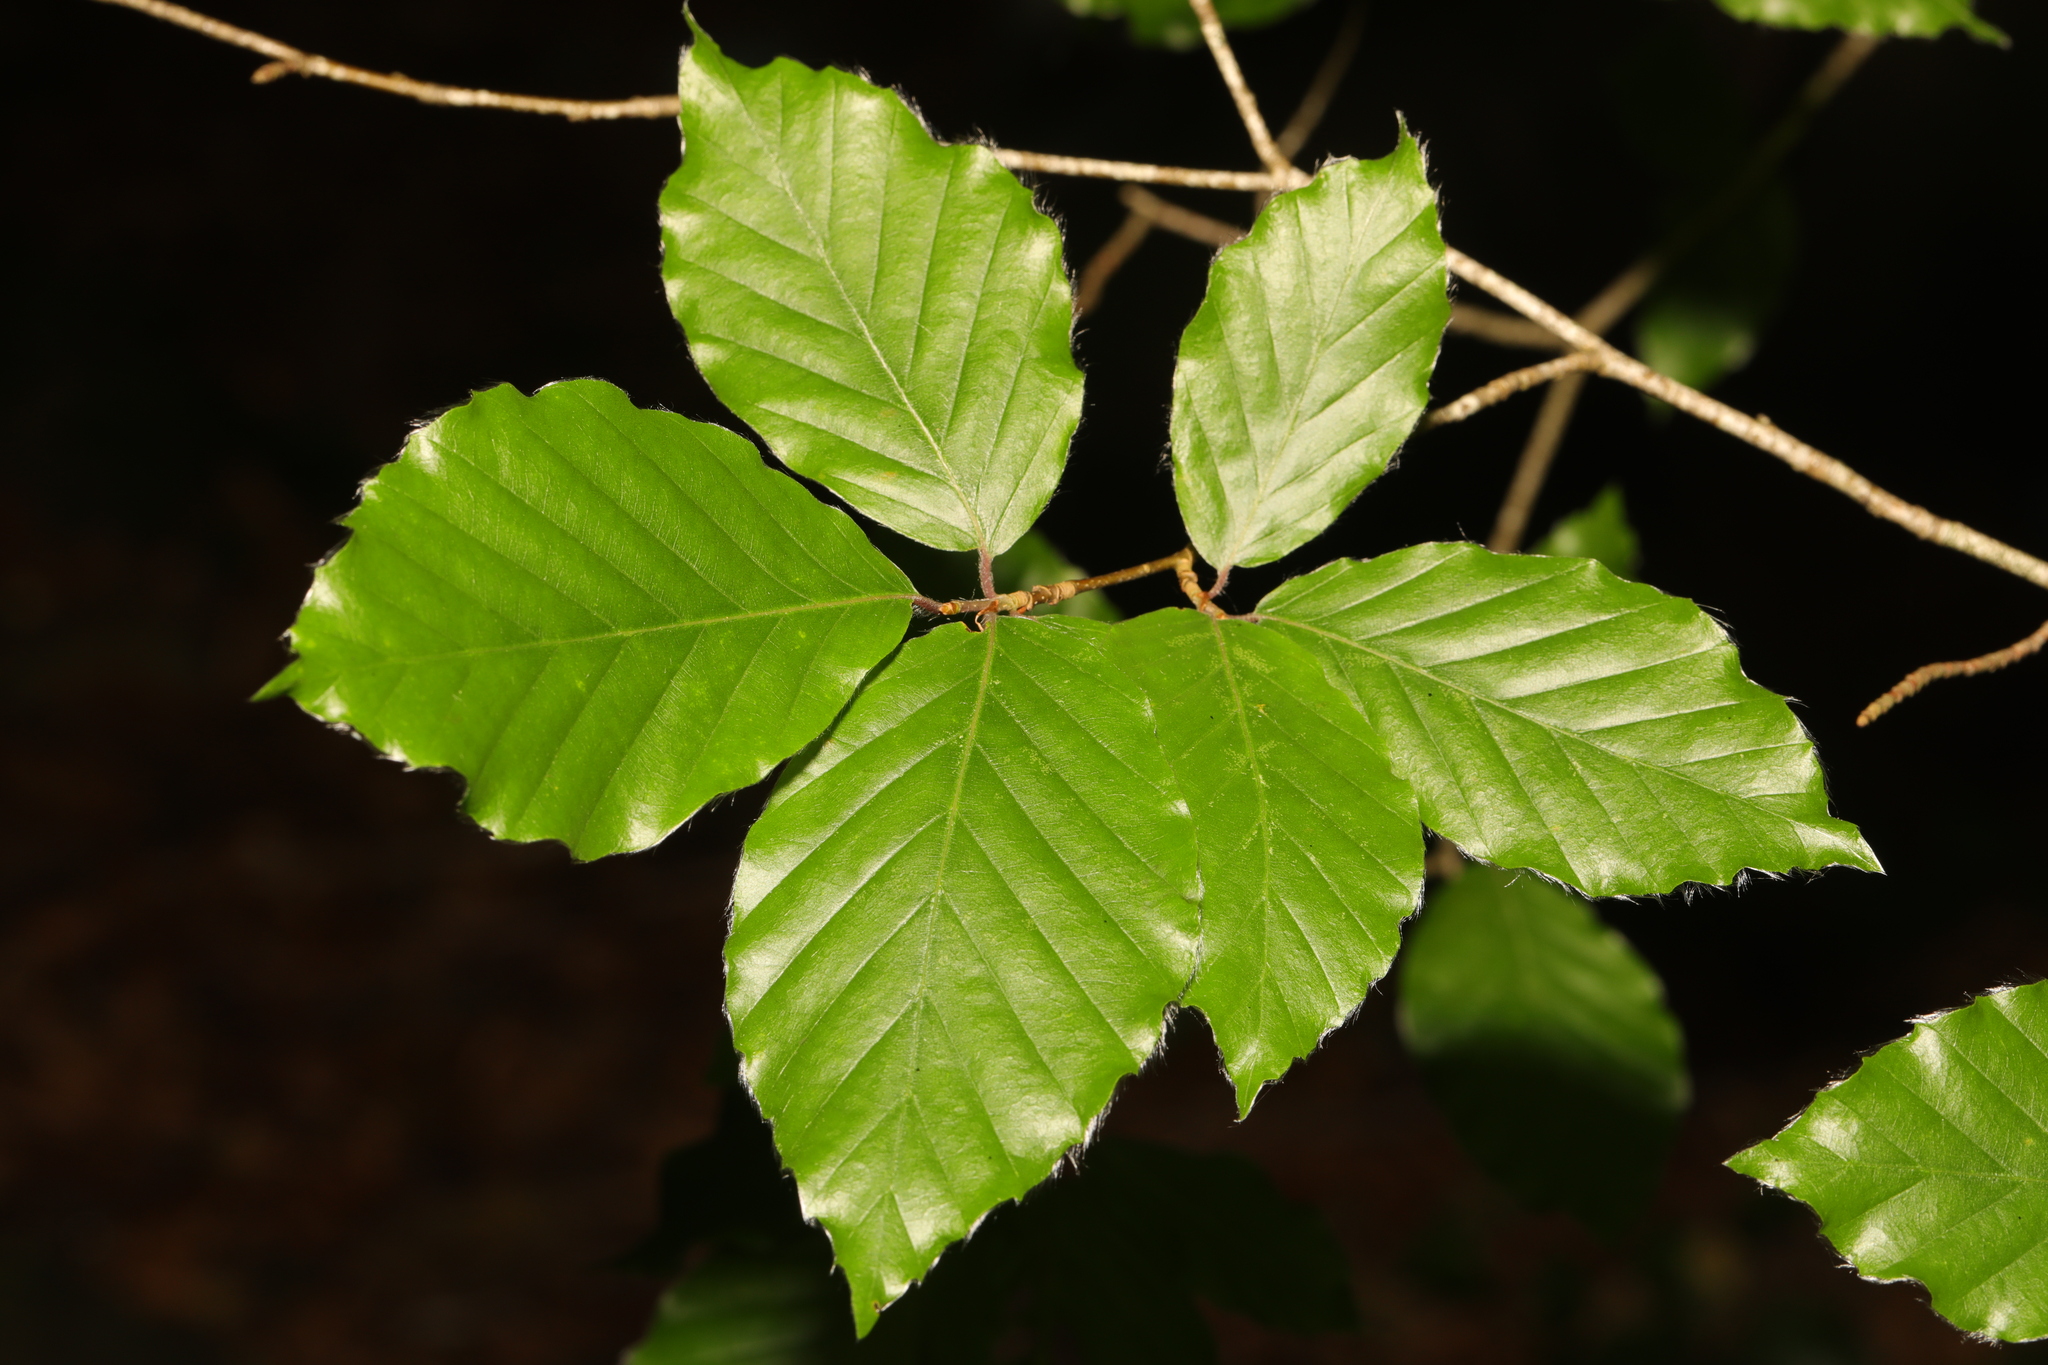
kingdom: Plantae
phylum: Tracheophyta
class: Magnoliopsida
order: Fagales
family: Fagaceae
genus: Fagus
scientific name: Fagus sylvatica
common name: Beech
